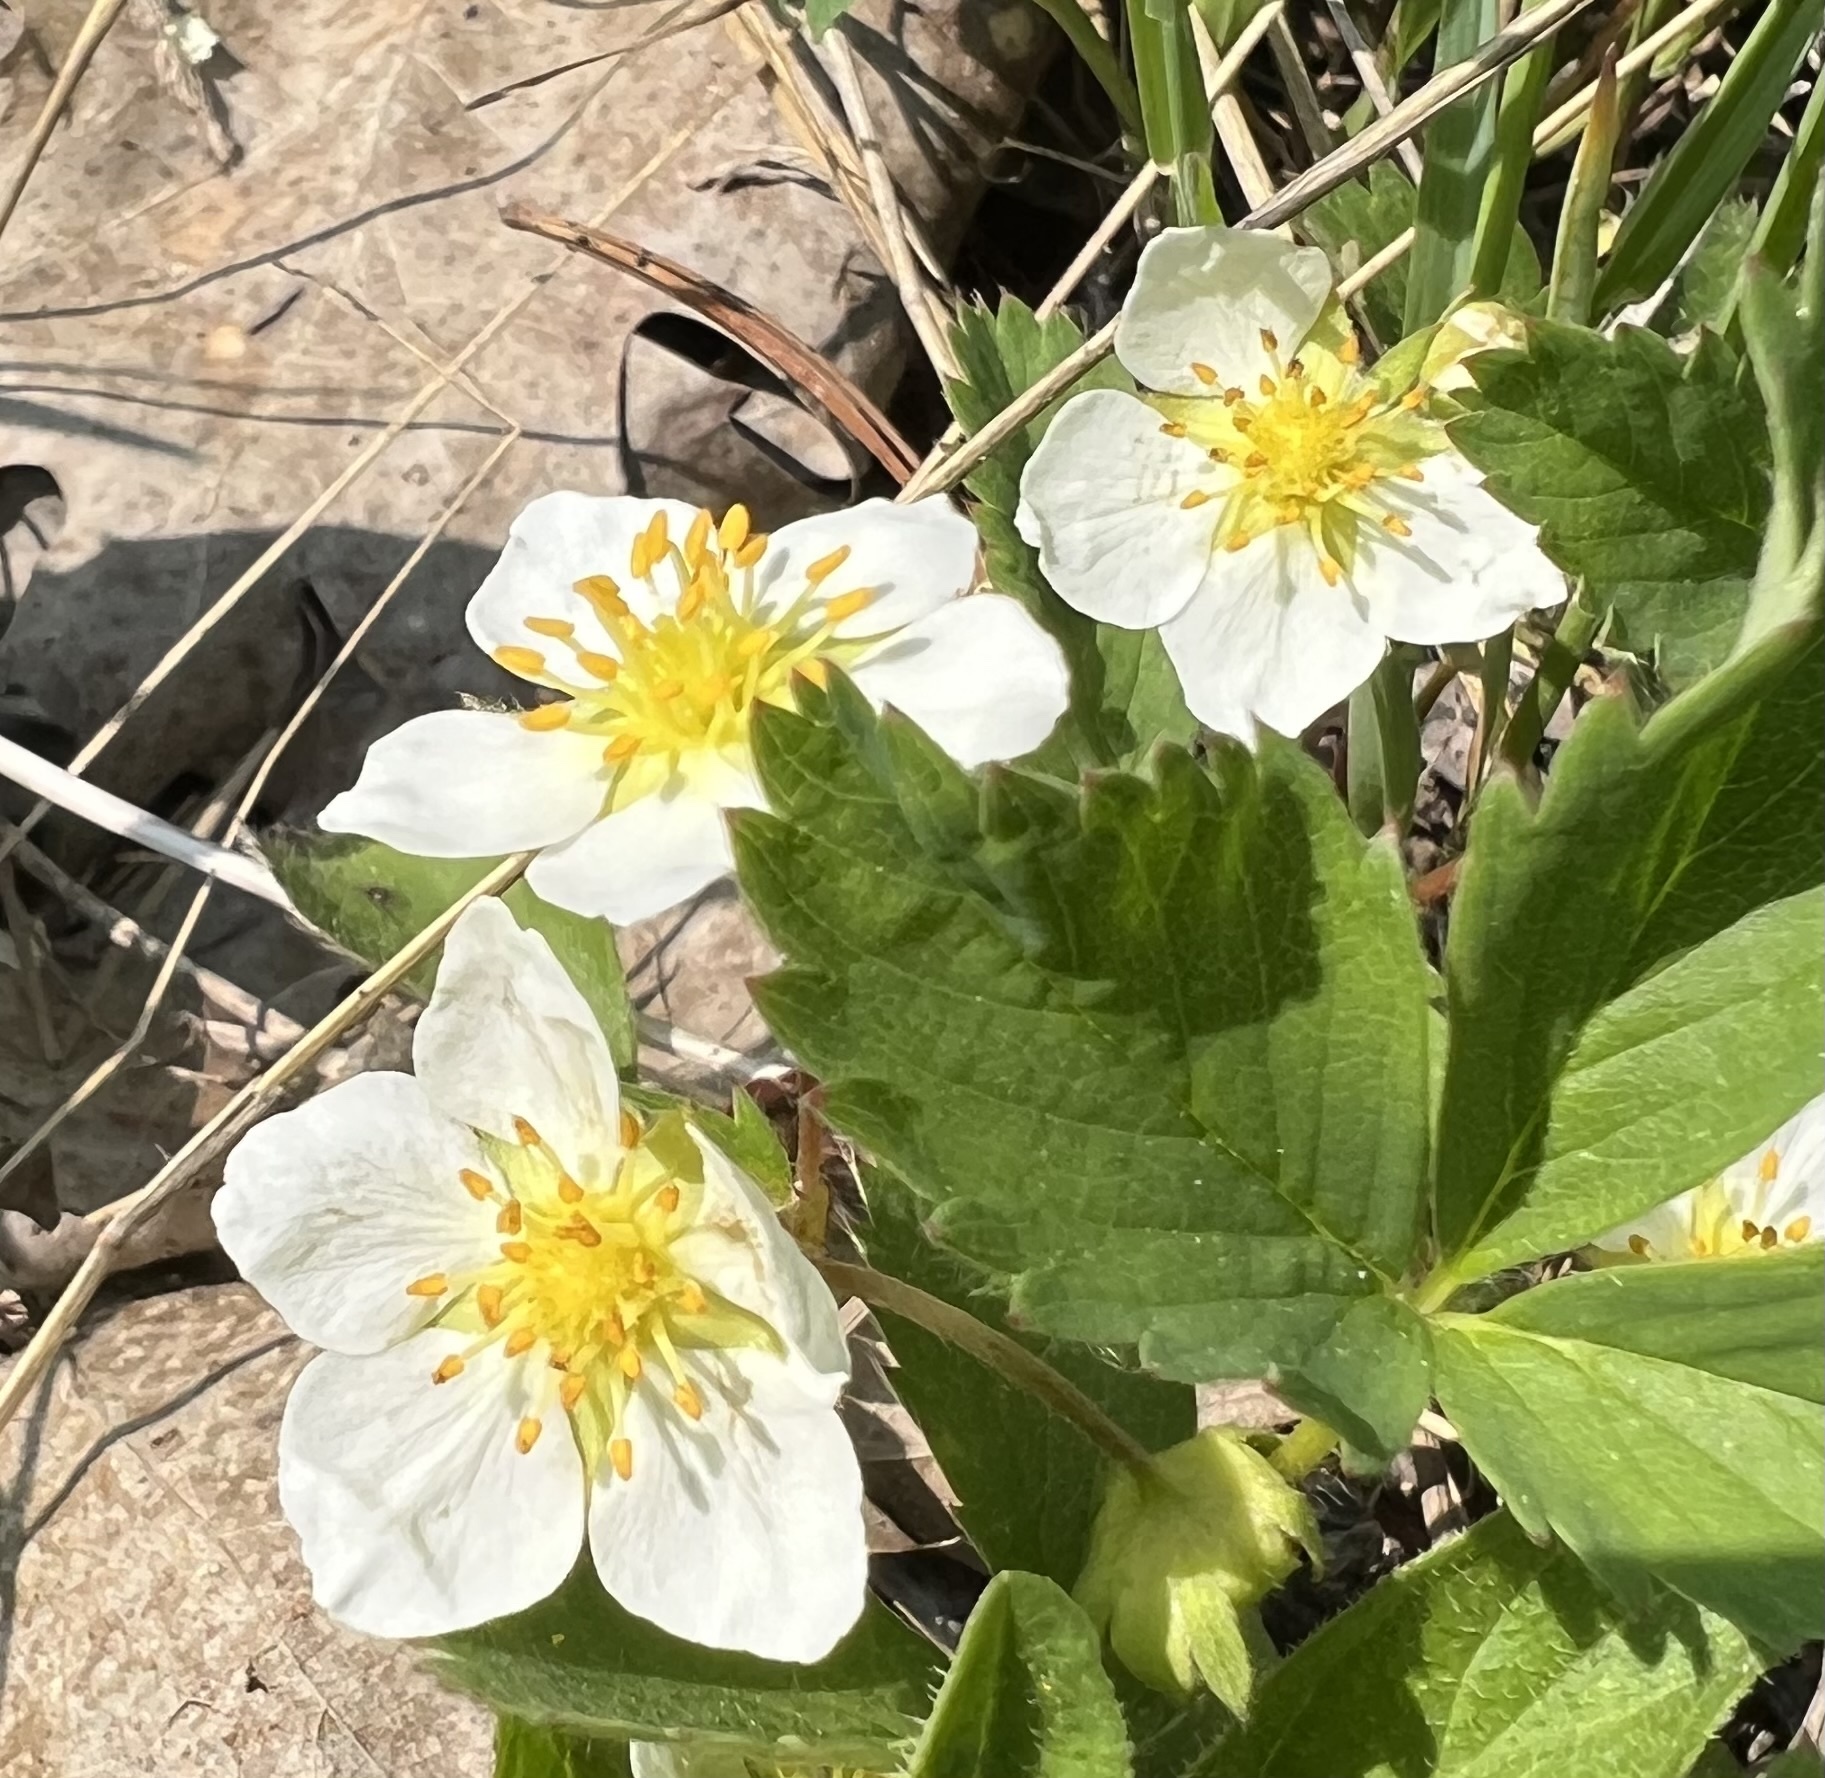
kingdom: Plantae
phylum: Tracheophyta
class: Magnoliopsida
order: Rosales
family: Rosaceae
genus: Fragaria
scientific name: Fragaria virginiana
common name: Thickleaved wild strawberry
